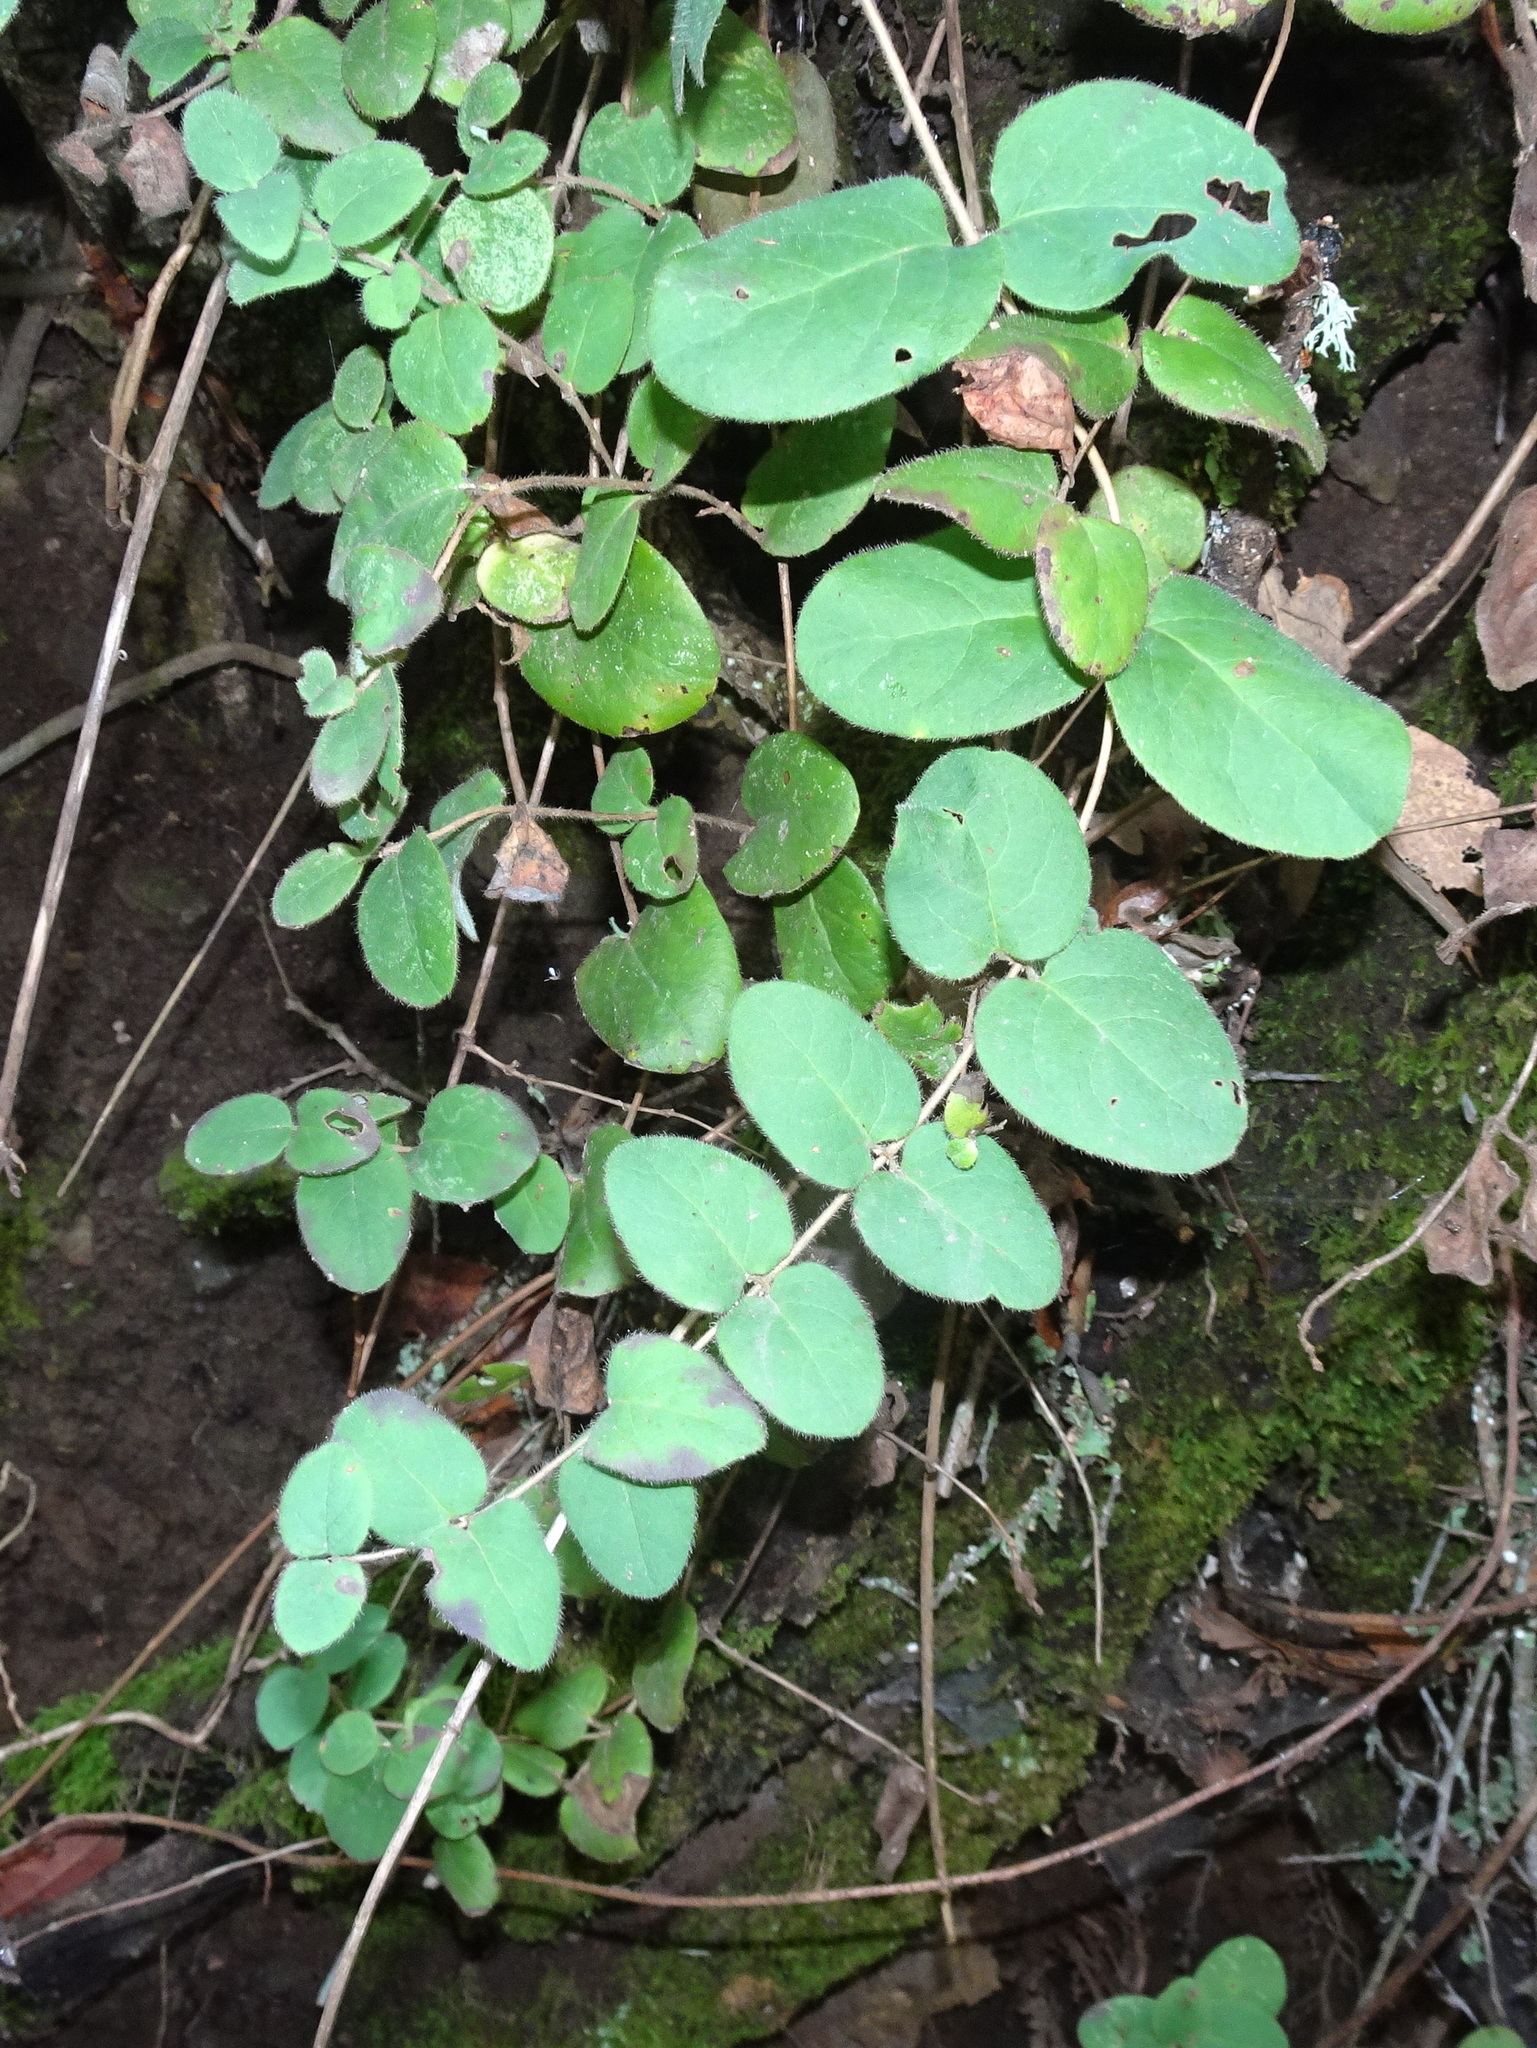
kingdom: Plantae
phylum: Tracheophyta
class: Magnoliopsida
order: Dipsacales
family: Caprifoliaceae
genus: Lonicera
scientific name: Lonicera hispidula
